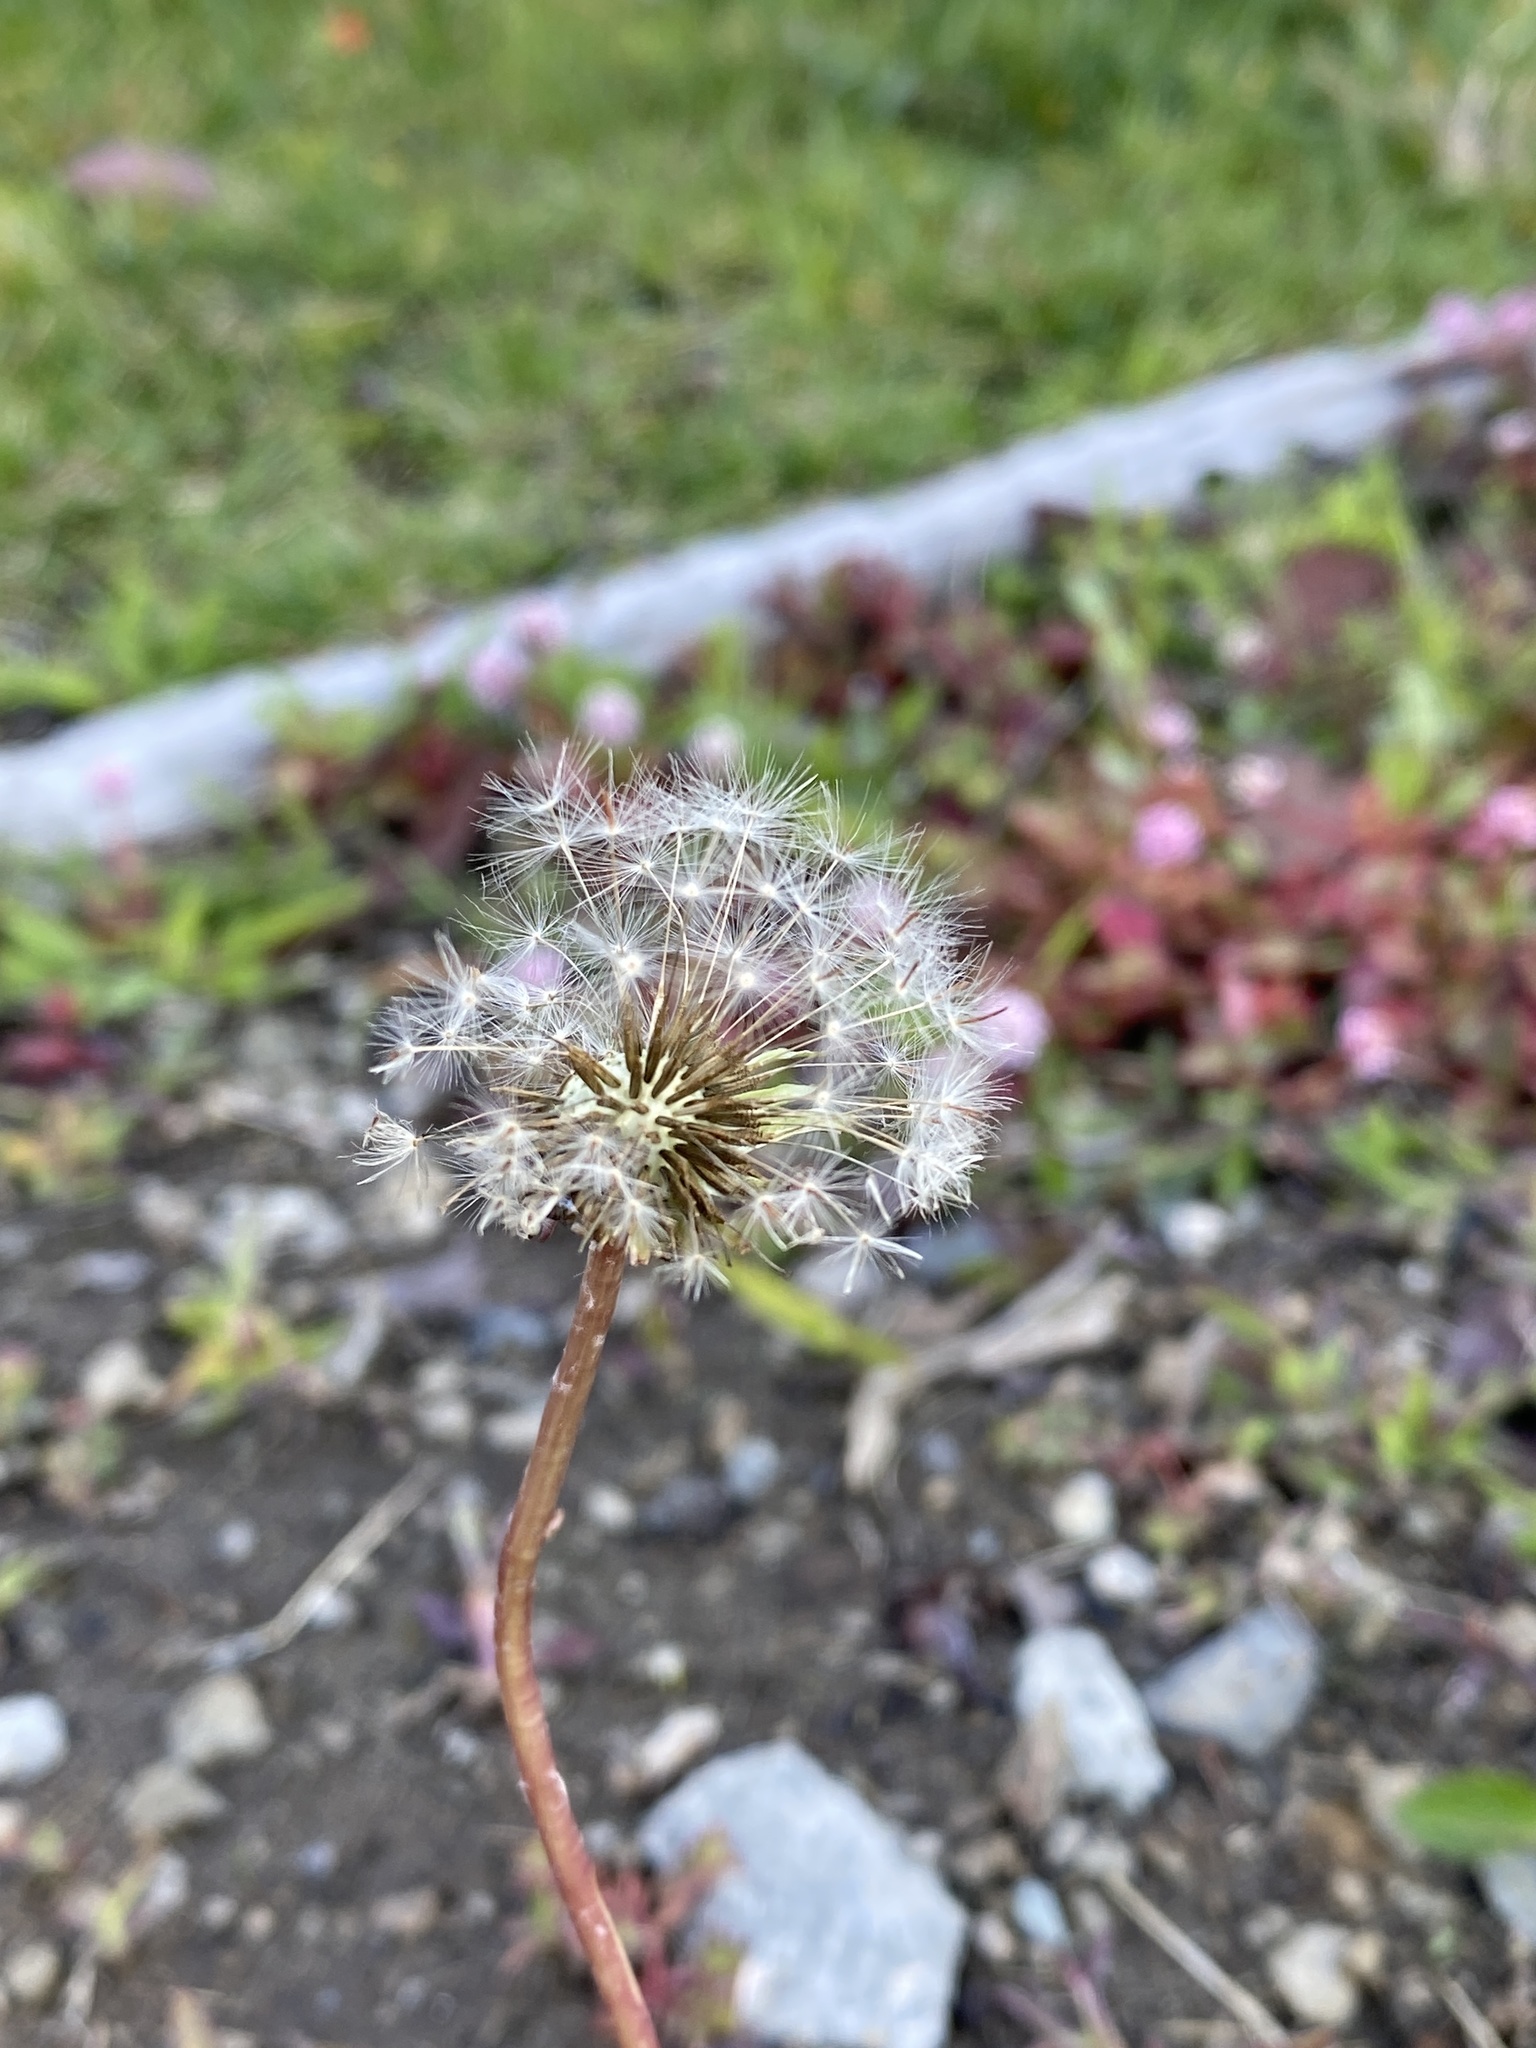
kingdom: Plantae
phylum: Tracheophyta
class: Magnoliopsida
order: Asterales
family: Asteraceae
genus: Taraxacum
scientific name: Taraxacum officinale
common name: Common dandelion
